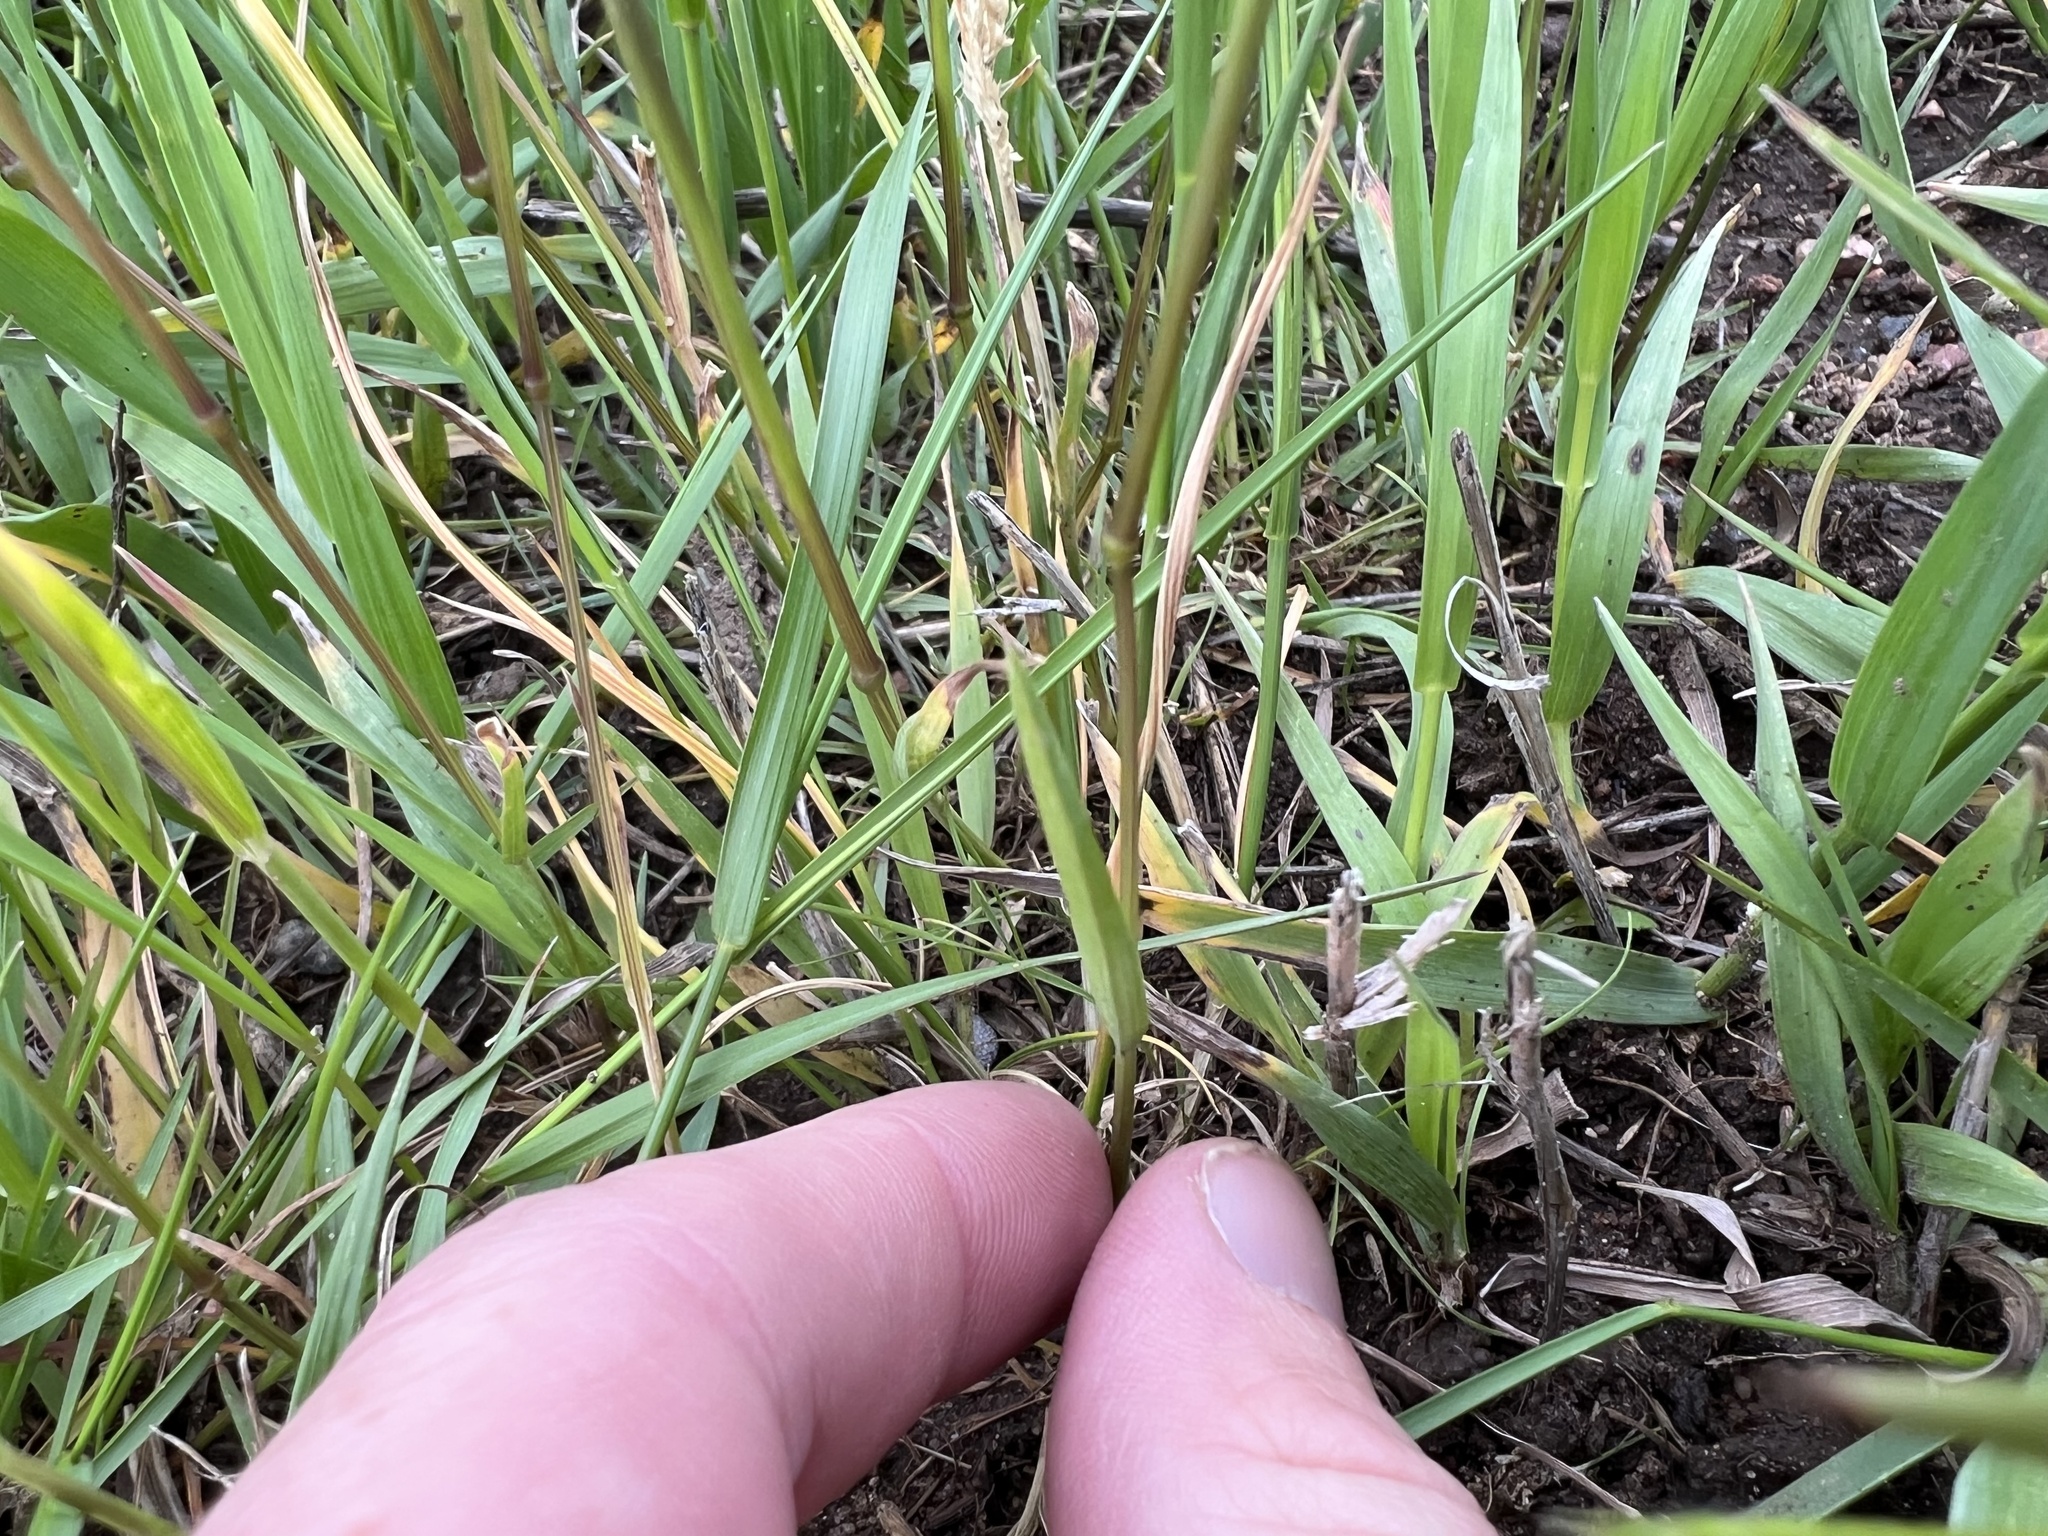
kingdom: Plantae
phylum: Tracheophyta
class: Liliopsida
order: Poales
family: Poaceae
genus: Poa
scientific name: Poa bulbosa
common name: Bulbous bluegrass
